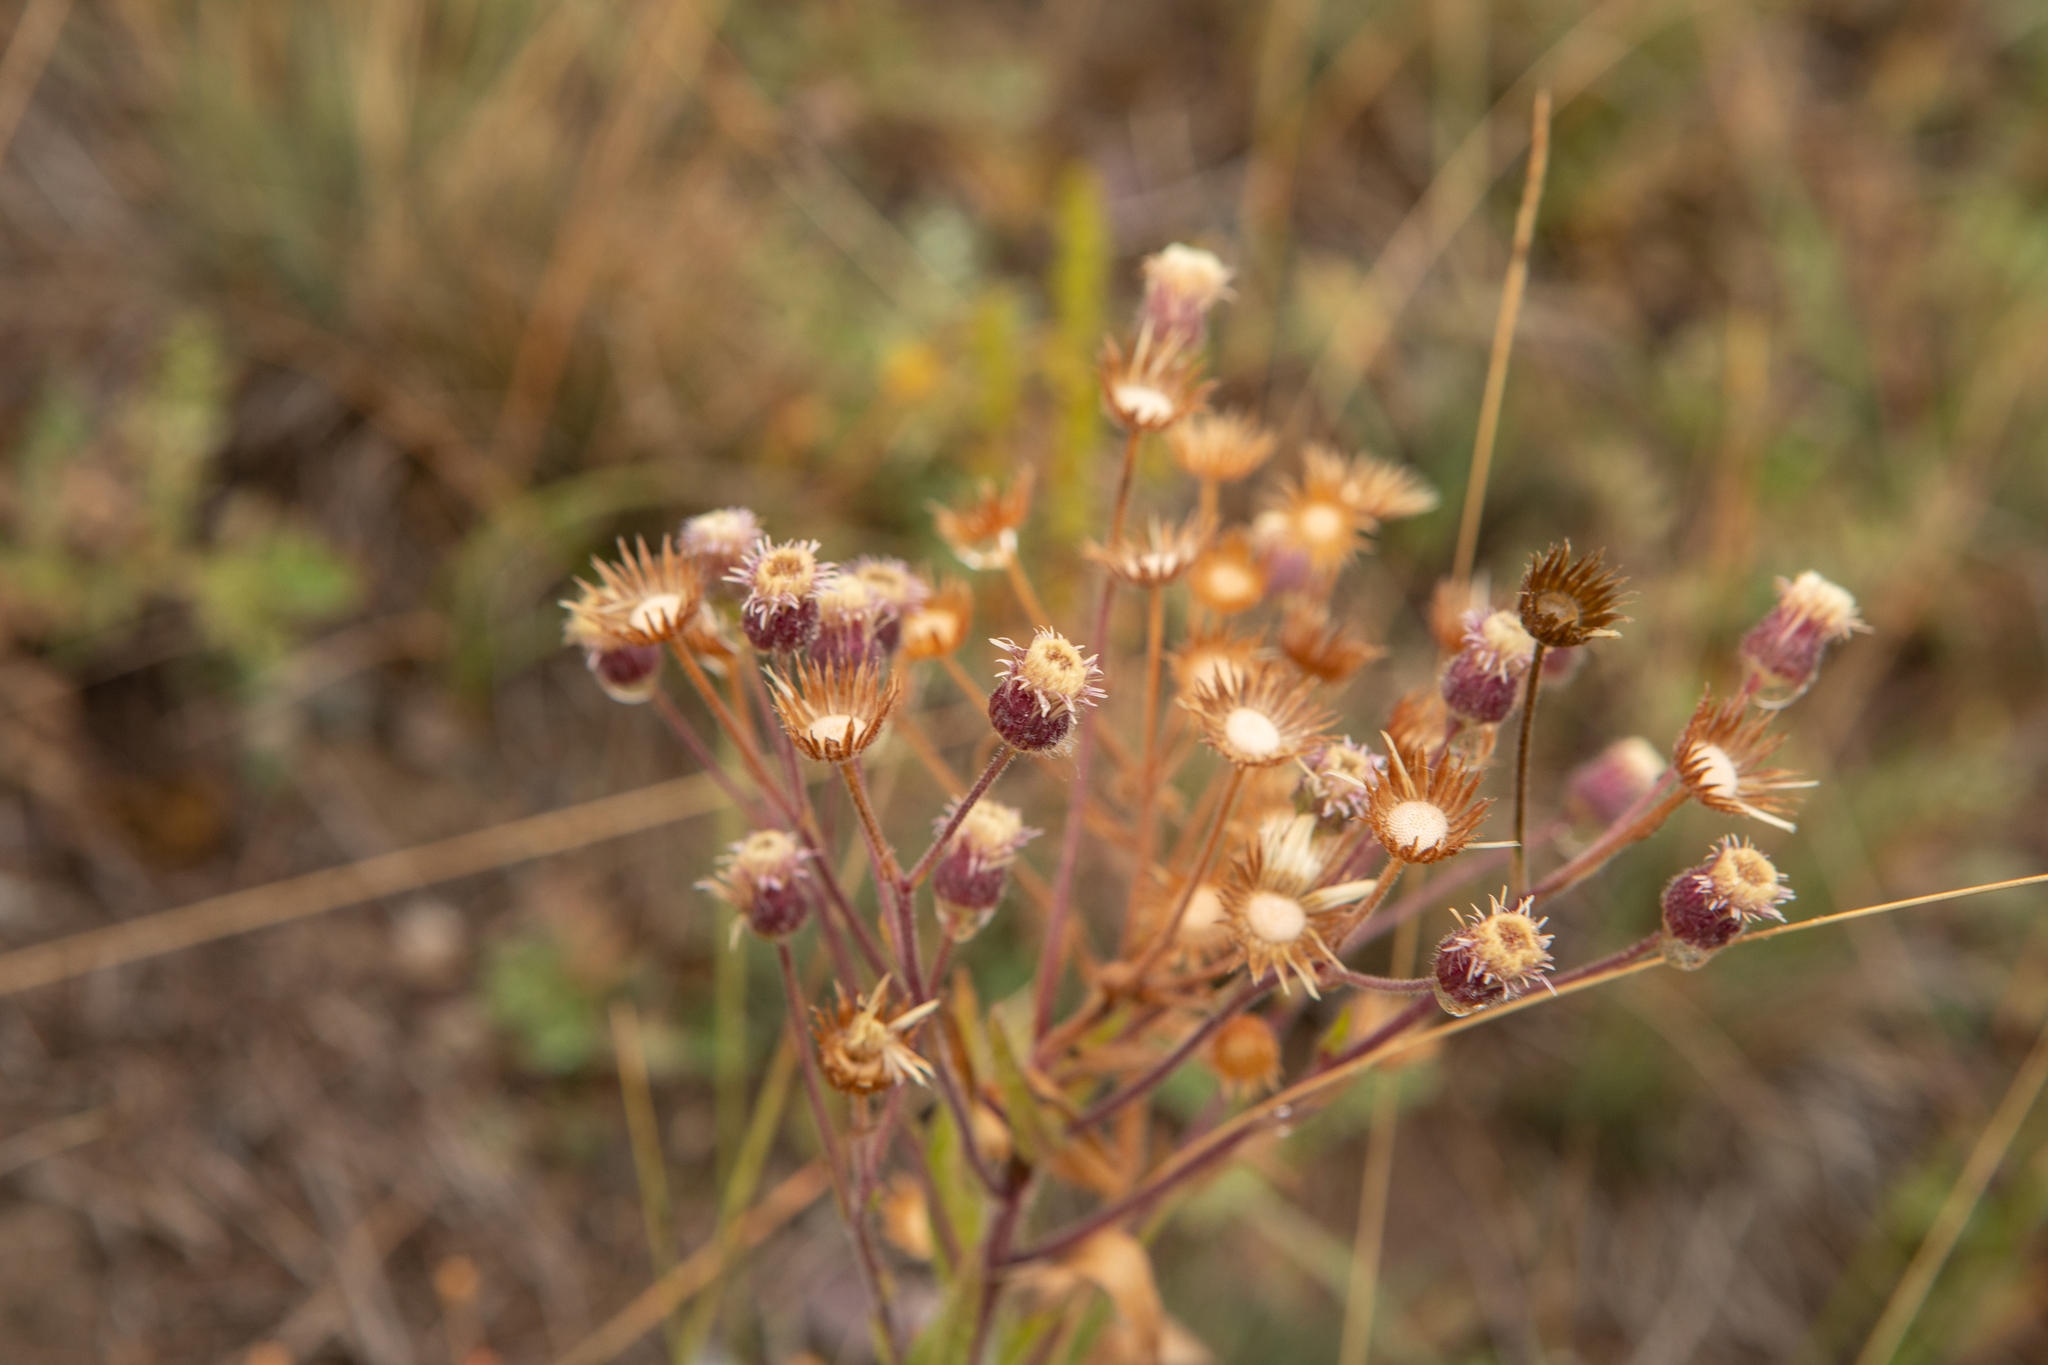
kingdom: Plantae
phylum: Tracheophyta
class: Magnoliopsida
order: Asterales
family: Asteraceae
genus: Erigeron
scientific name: Erigeron acris
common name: Blue fleabane
